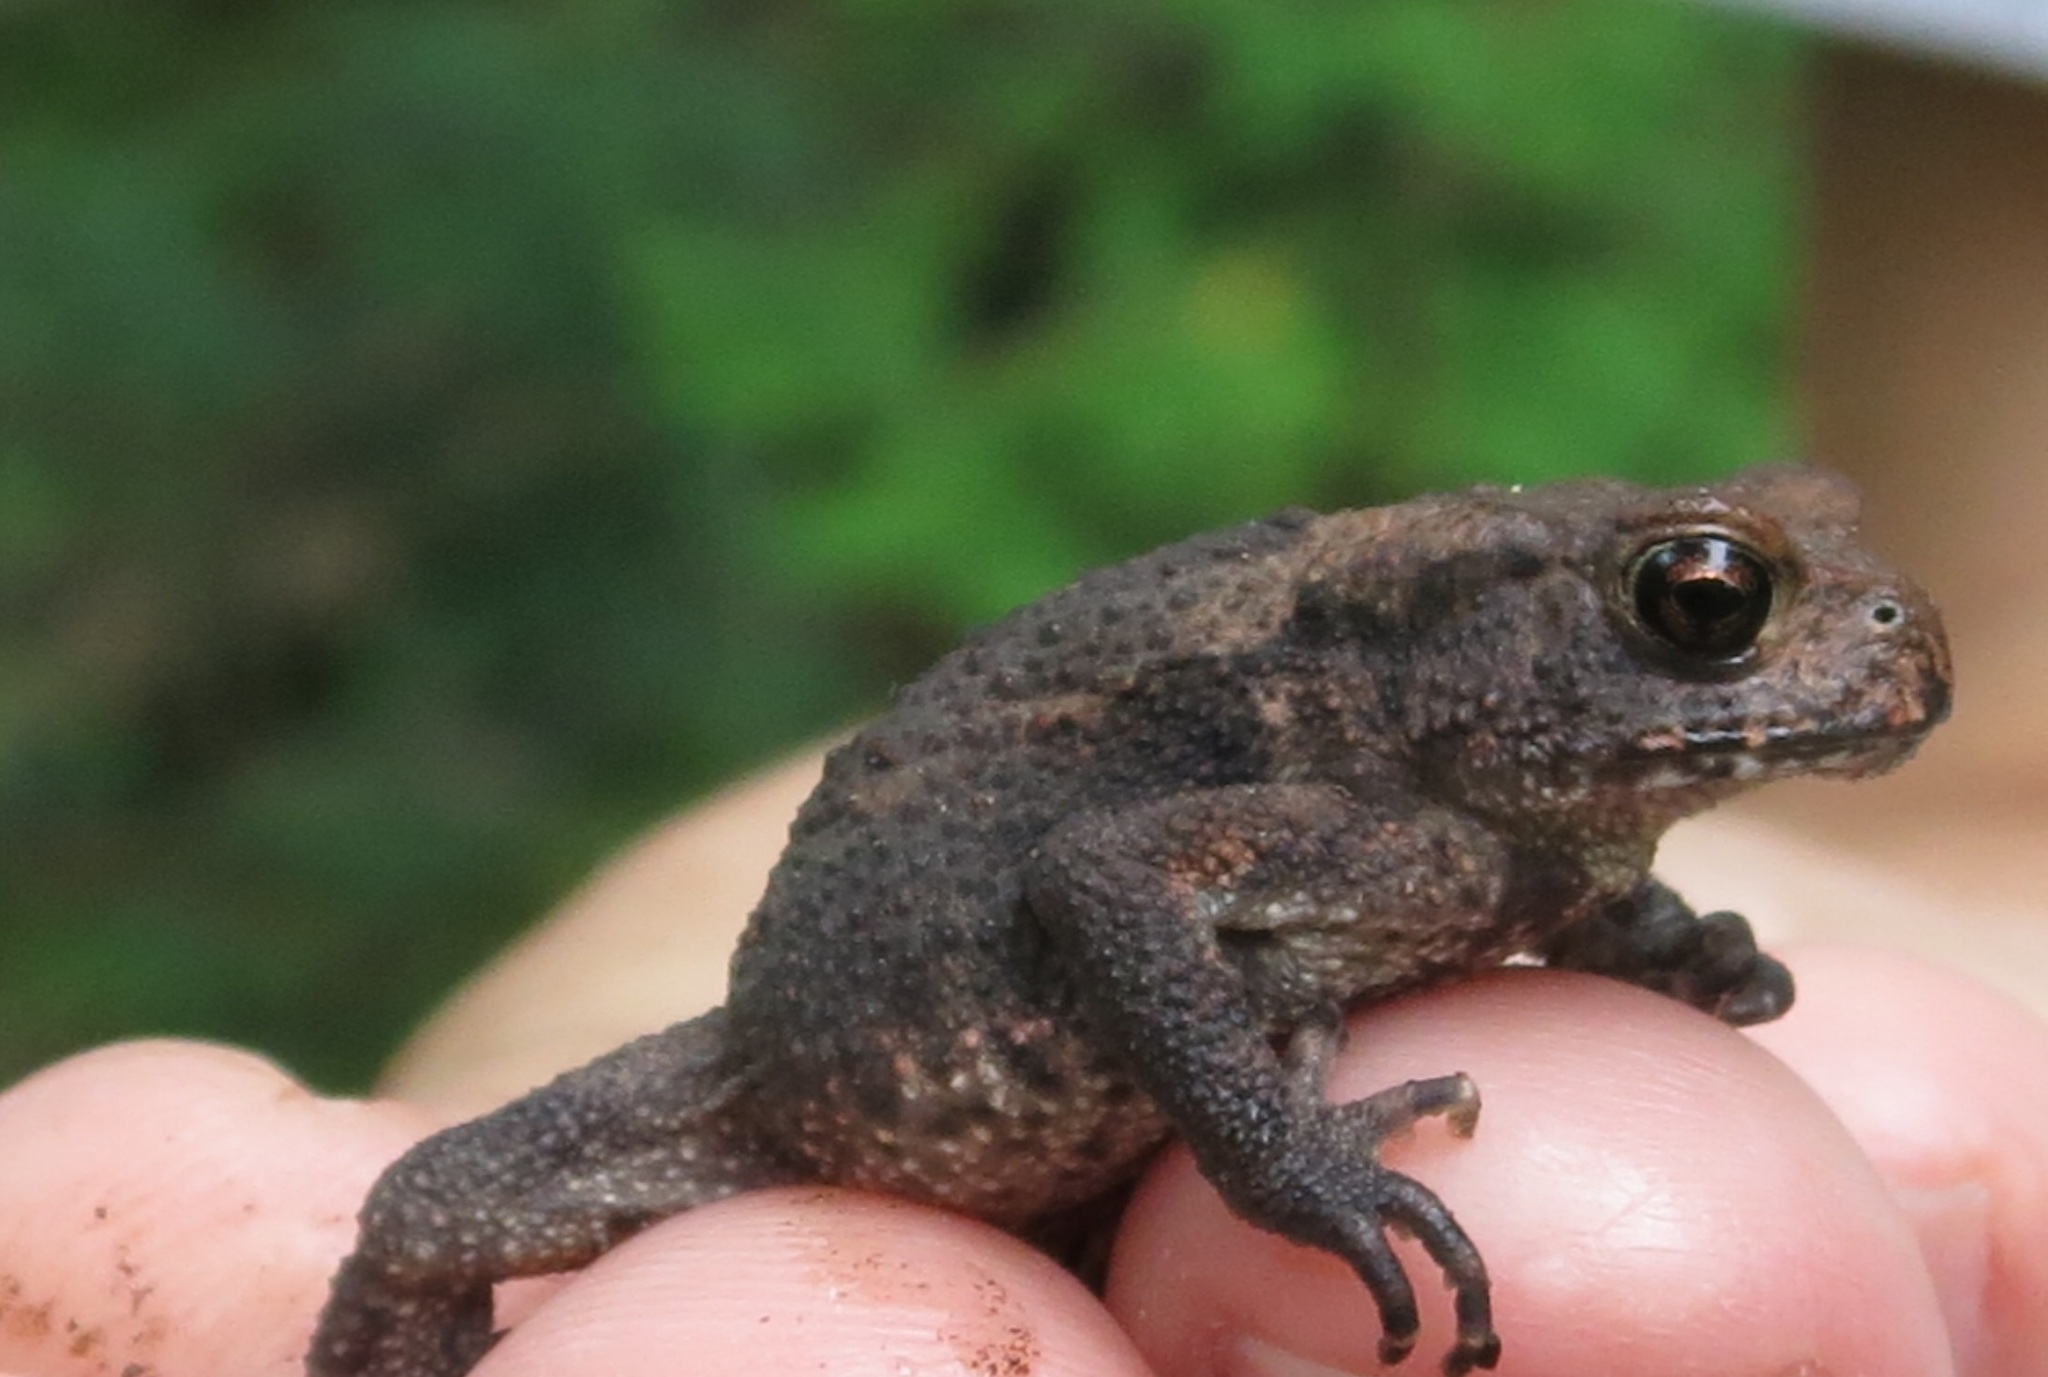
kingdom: Animalia
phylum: Chordata
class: Amphibia
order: Anura
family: Bufonidae
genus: Bufo
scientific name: Bufo gargarizans
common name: Asiatic toad
